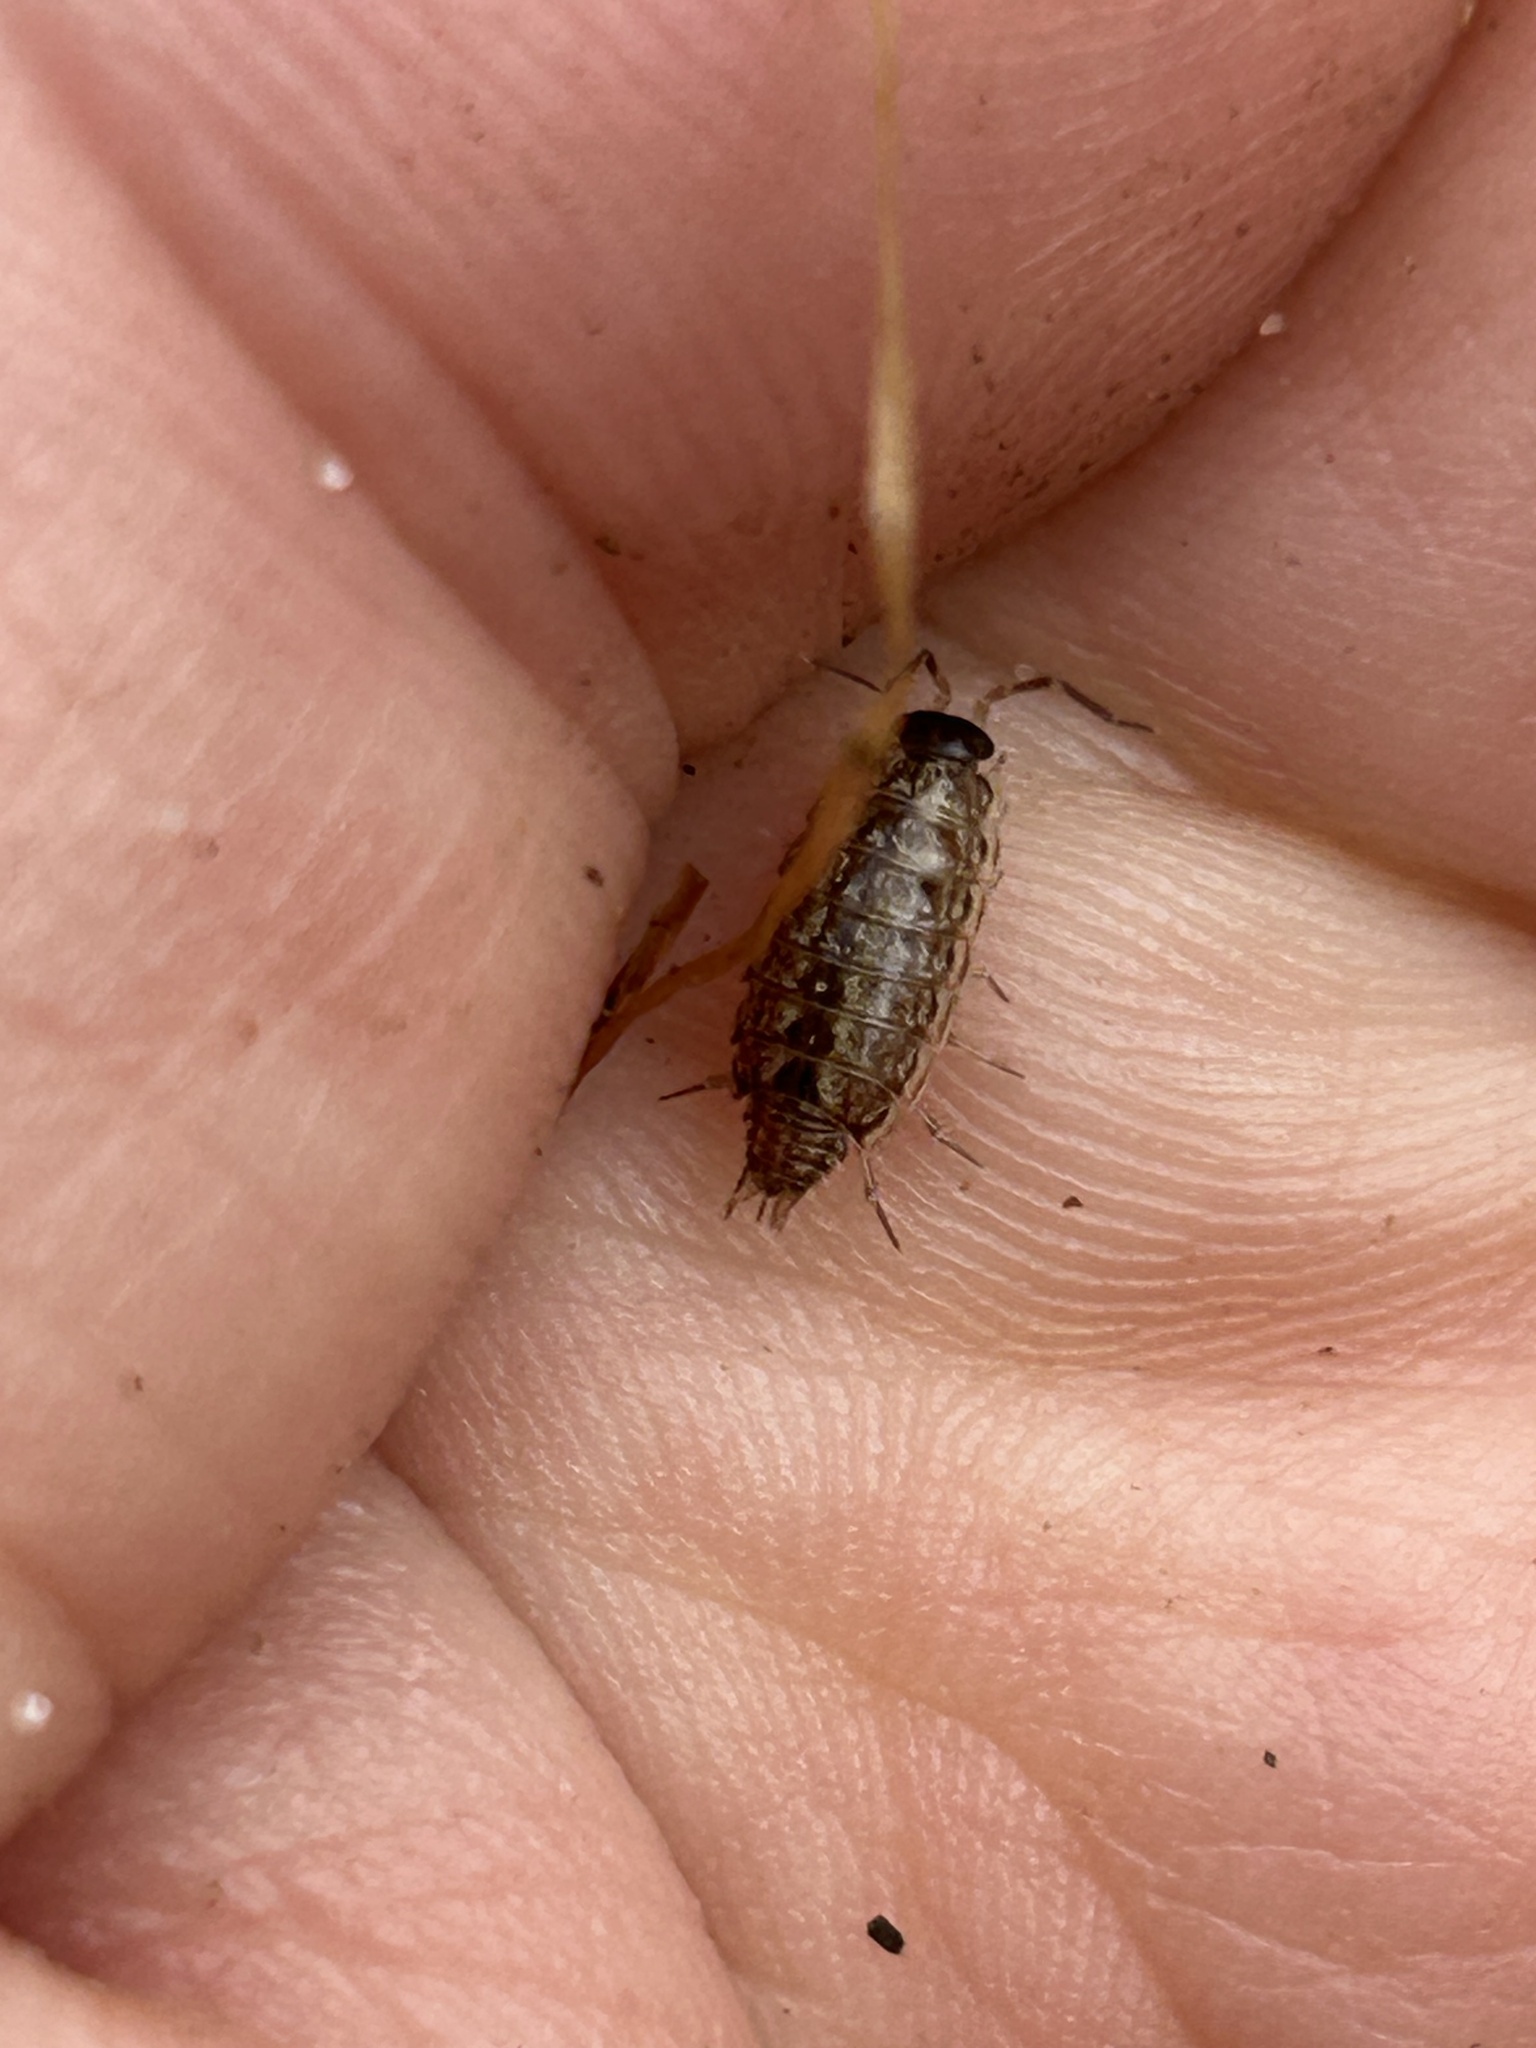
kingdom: Animalia
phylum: Arthropoda
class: Malacostraca
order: Isopoda
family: Philosciidae
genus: Philoscia
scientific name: Philoscia muscorum
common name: Common striped woodlouse
